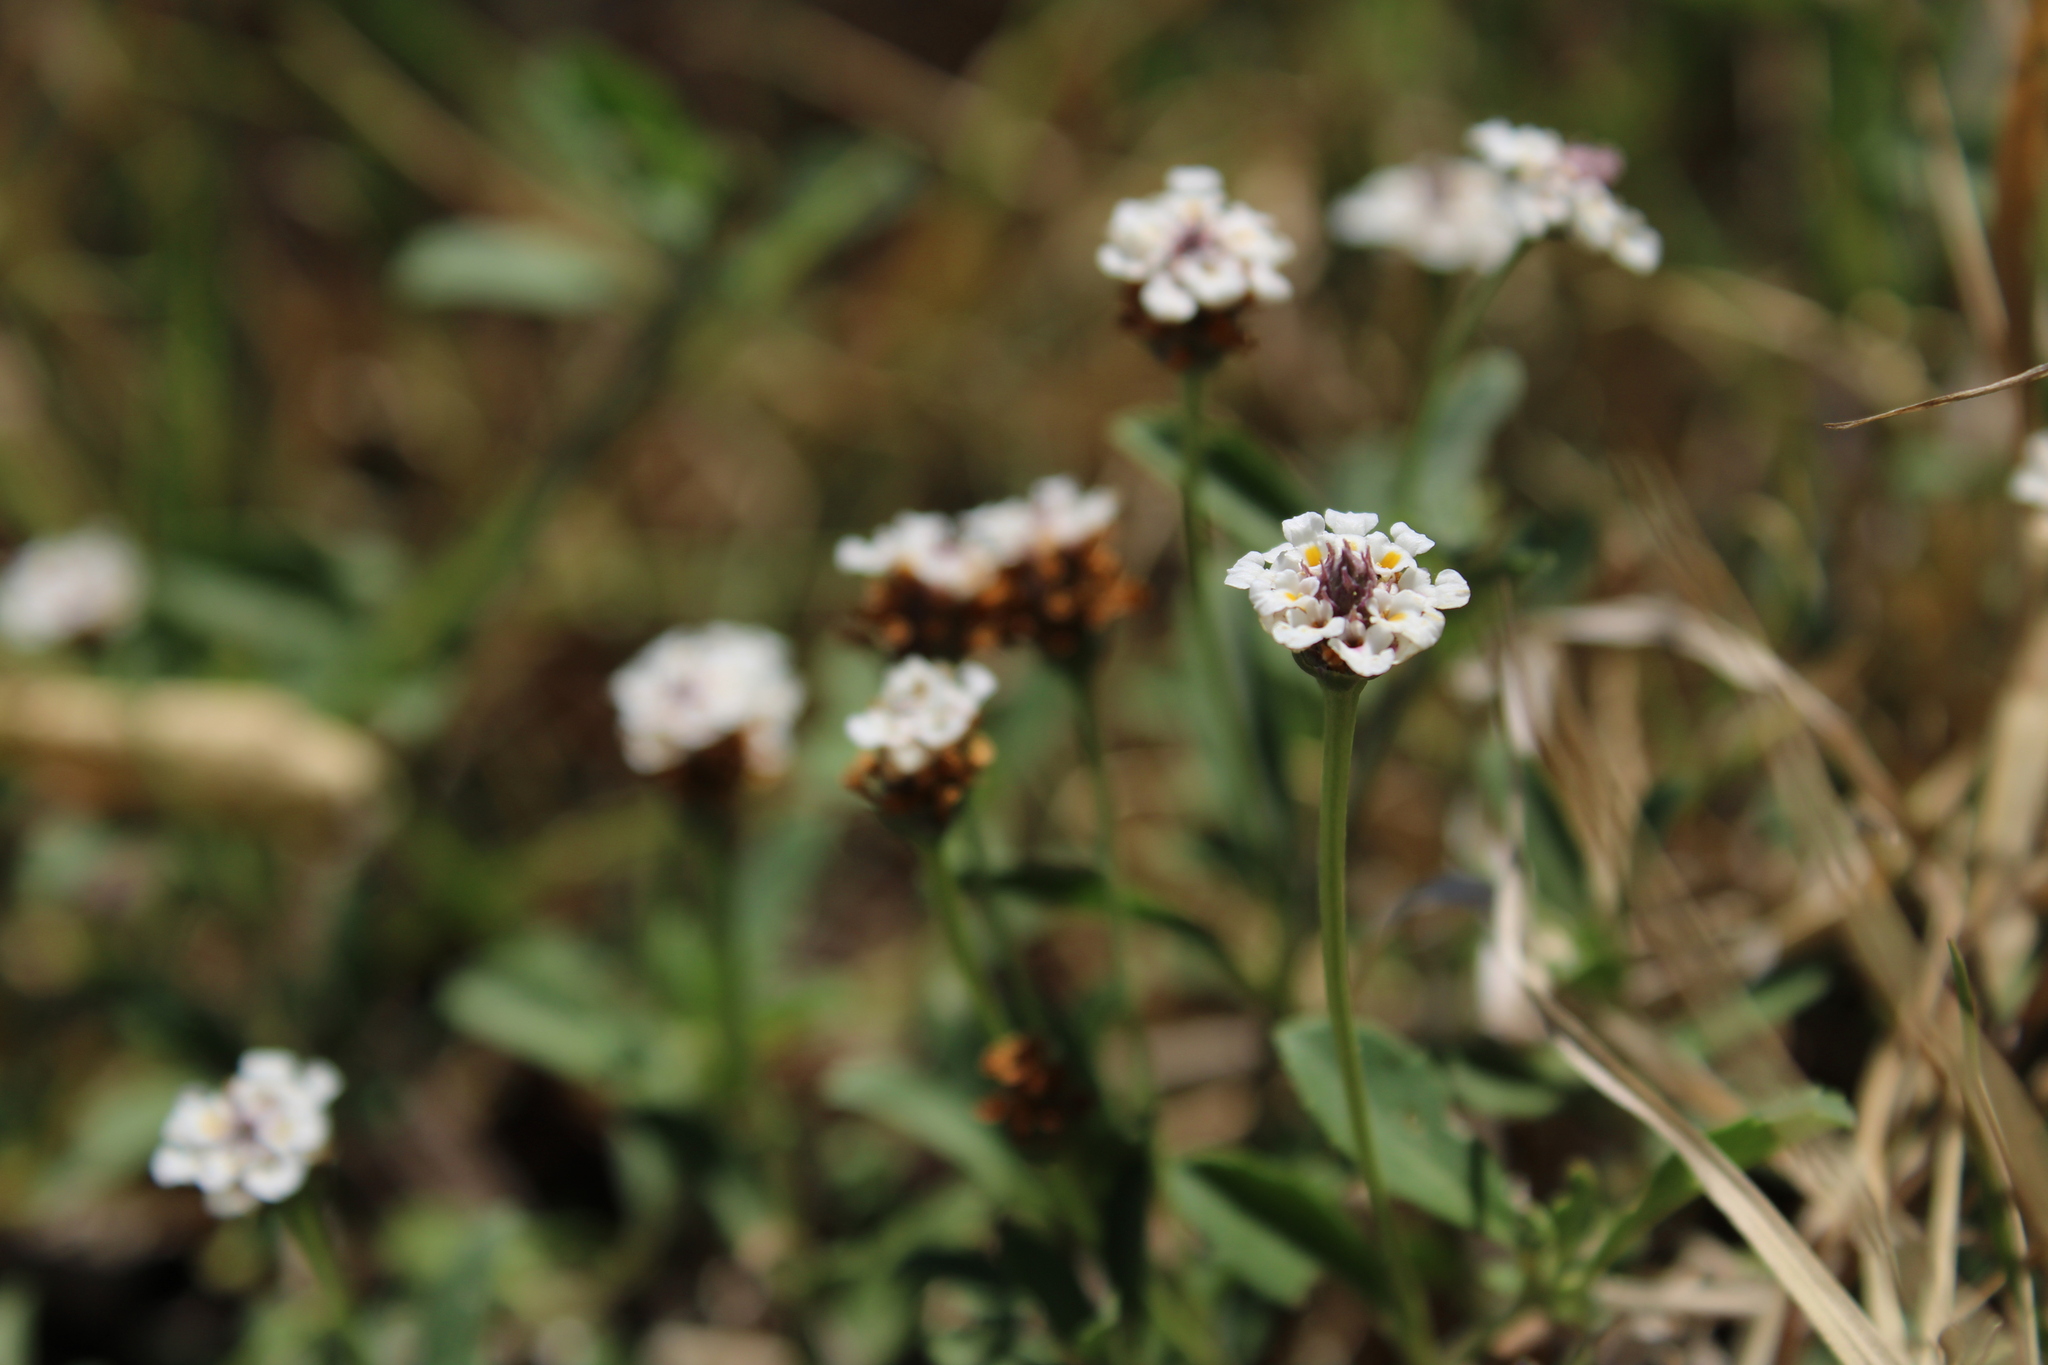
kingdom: Plantae
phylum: Tracheophyta
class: Magnoliopsida
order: Lamiales
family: Verbenaceae
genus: Phyla
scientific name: Phyla nodiflora
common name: Frogfruit
